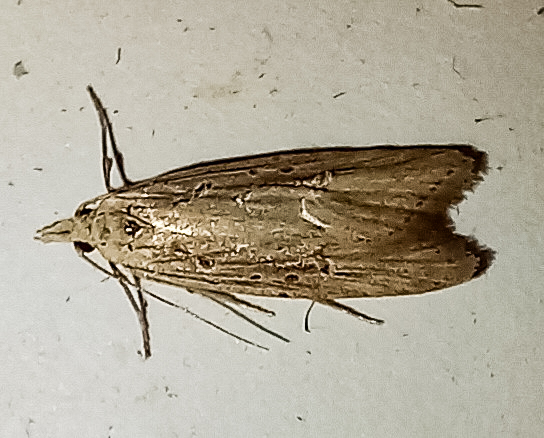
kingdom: Animalia
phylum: Arthropoda
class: Insecta
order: Lepidoptera
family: Carposinidae
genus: Carposina
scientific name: Carposina Heterocrossa exochana
